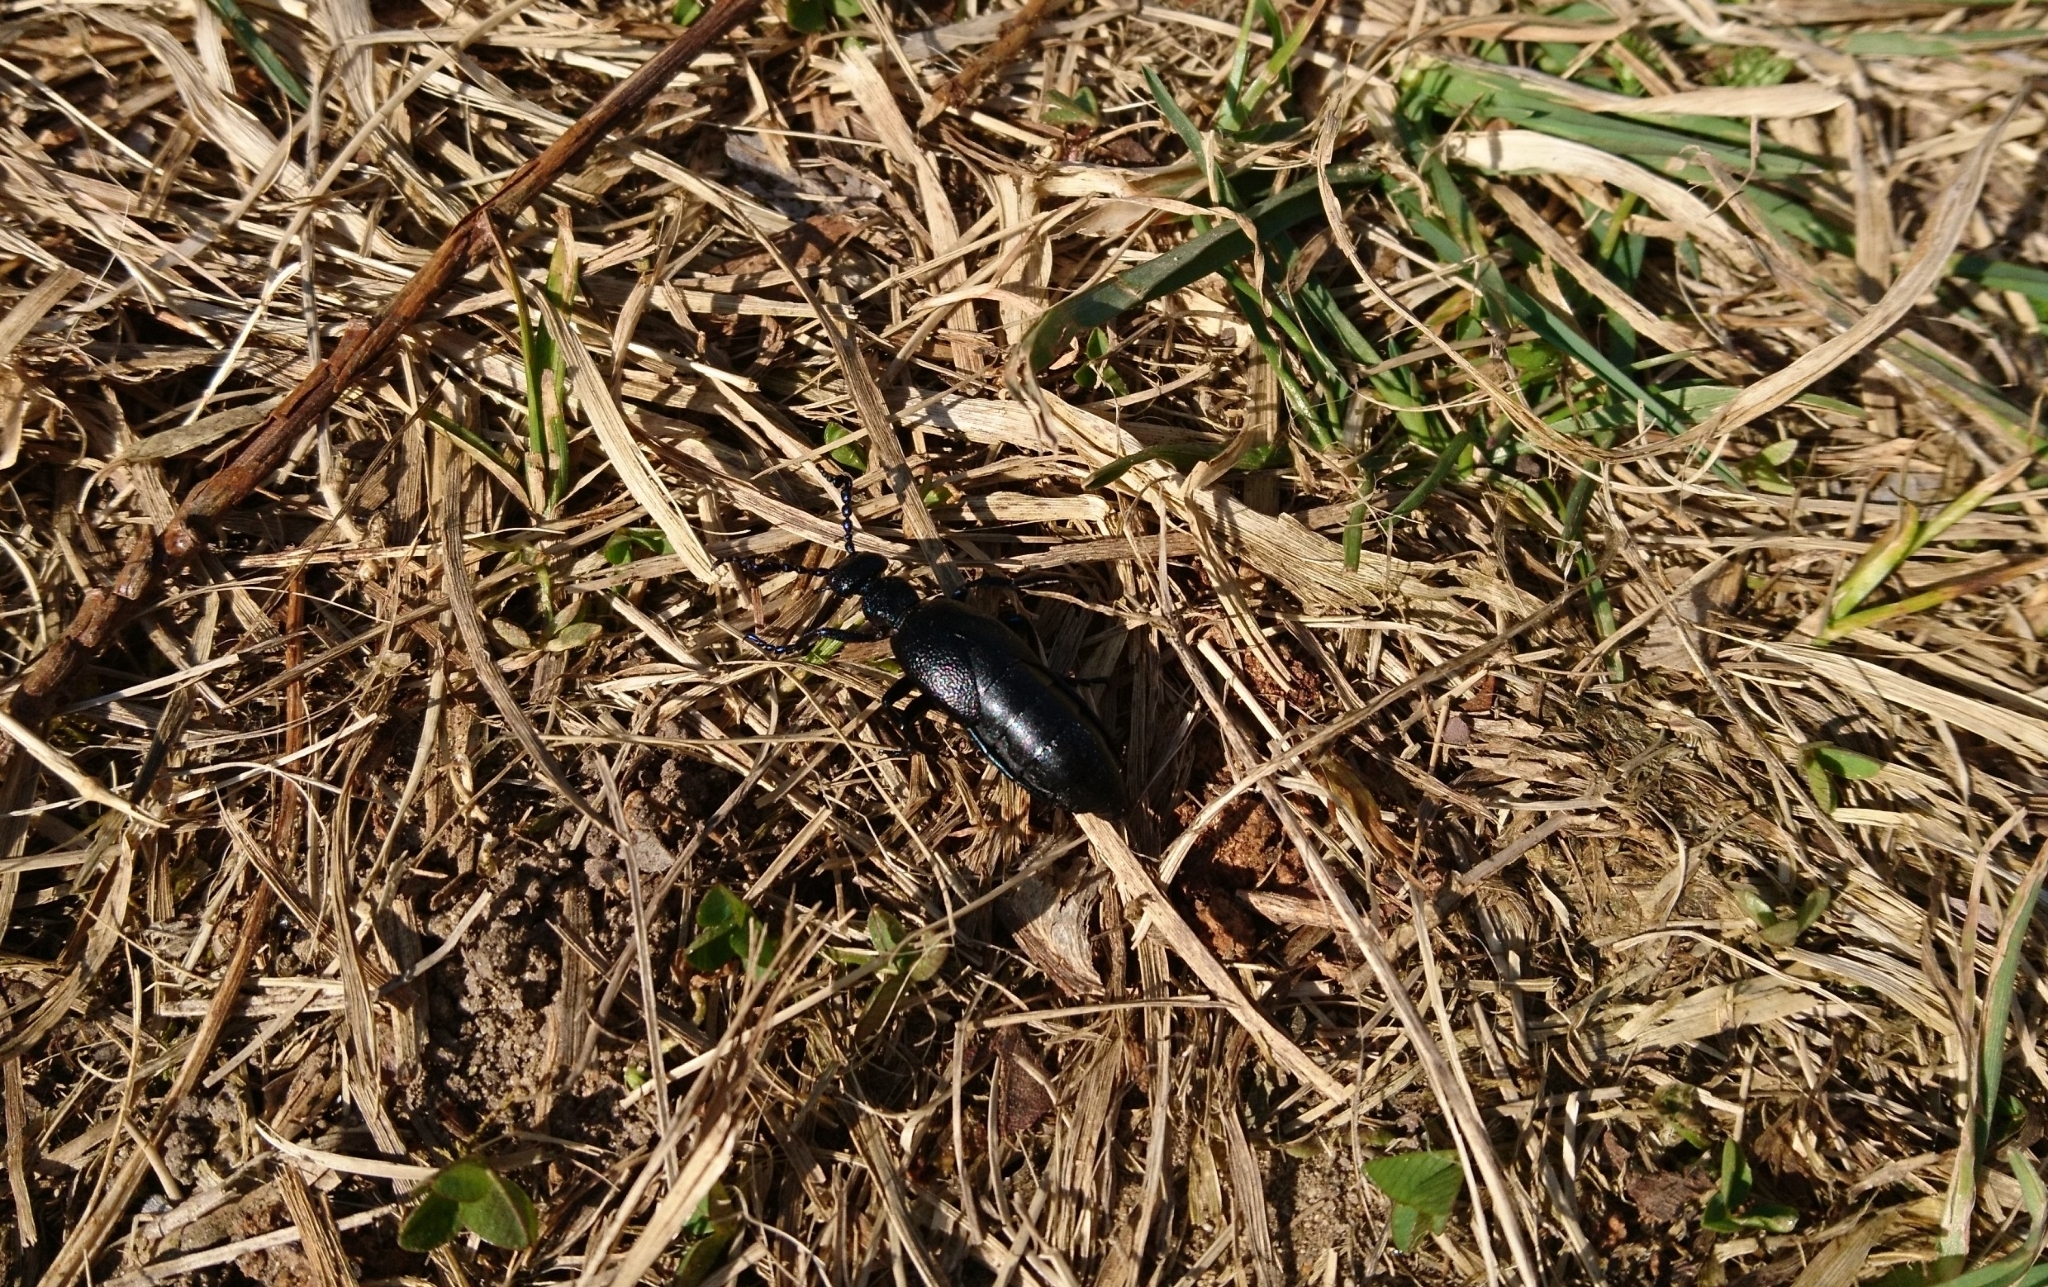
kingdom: Animalia
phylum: Arthropoda
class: Insecta
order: Coleoptera
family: Meloidae
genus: Meloe
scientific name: Meloe proscarabaeus
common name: Black oil-beetle
